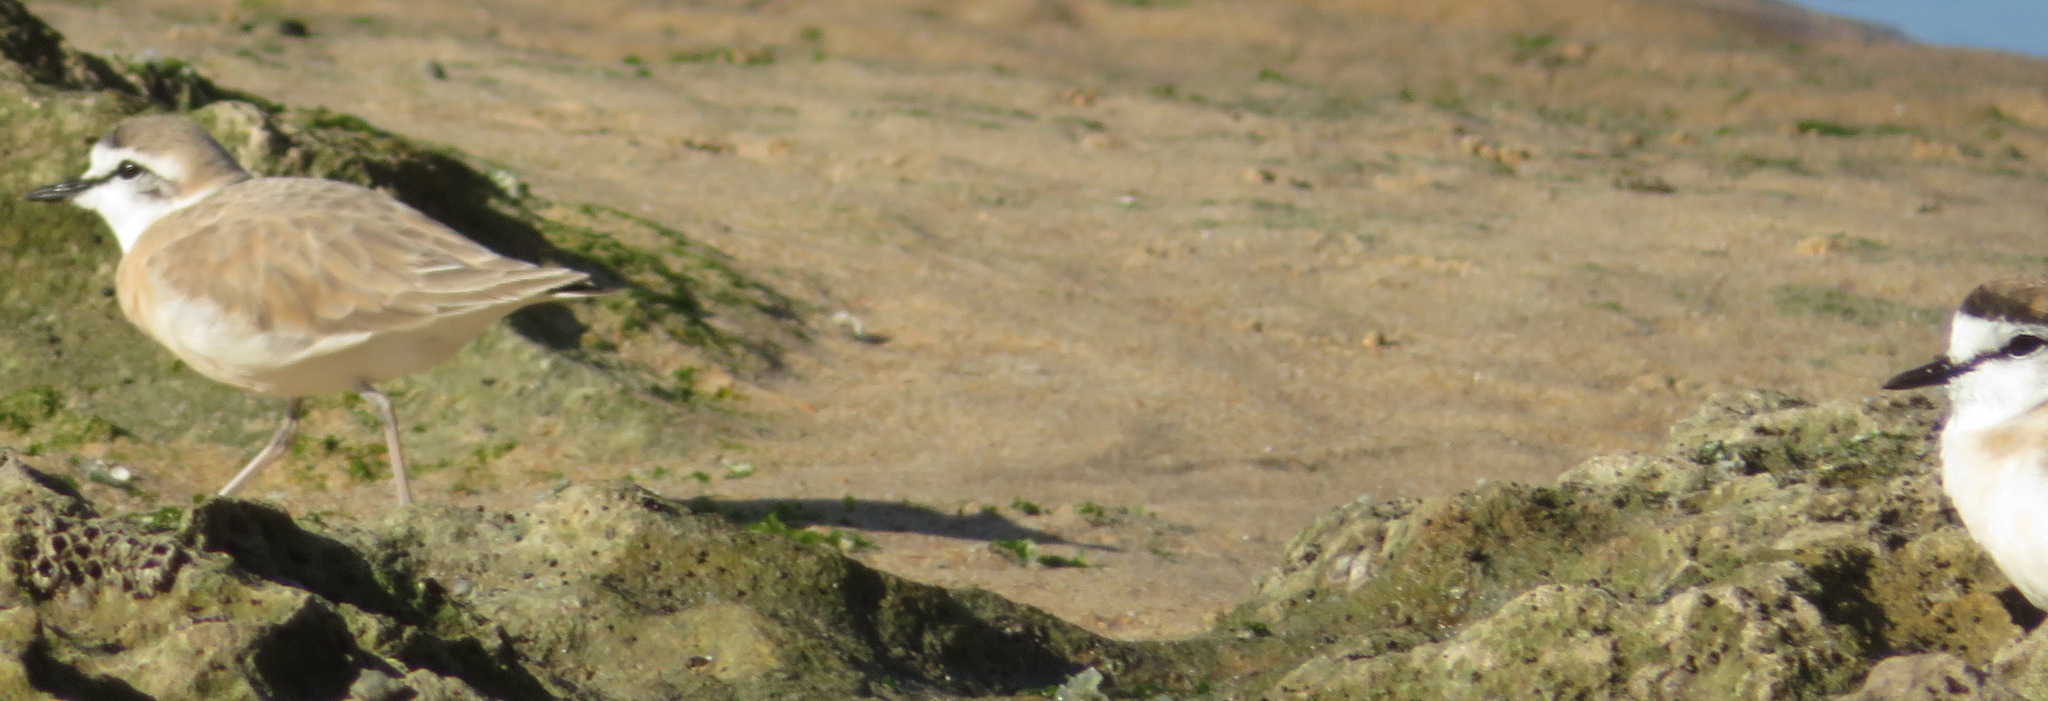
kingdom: Animalia
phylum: Chordata
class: Aves
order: Charadriiformes
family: Charadriidae
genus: Anarhynchus
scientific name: Anarhynchus
